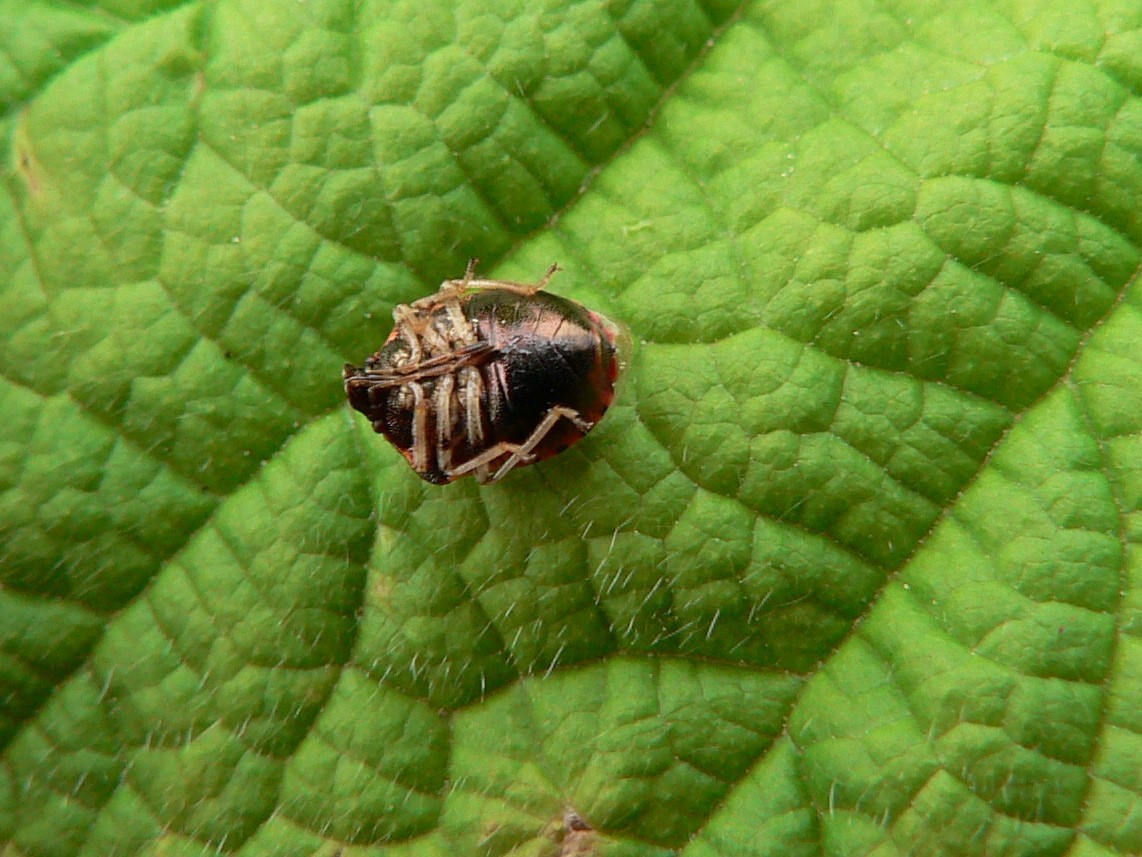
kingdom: Animalia
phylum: Arthropoda
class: Insecta
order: Hemiptera
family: Pentatomidae
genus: Cosmopepla
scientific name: Cosmopepla intergressus
